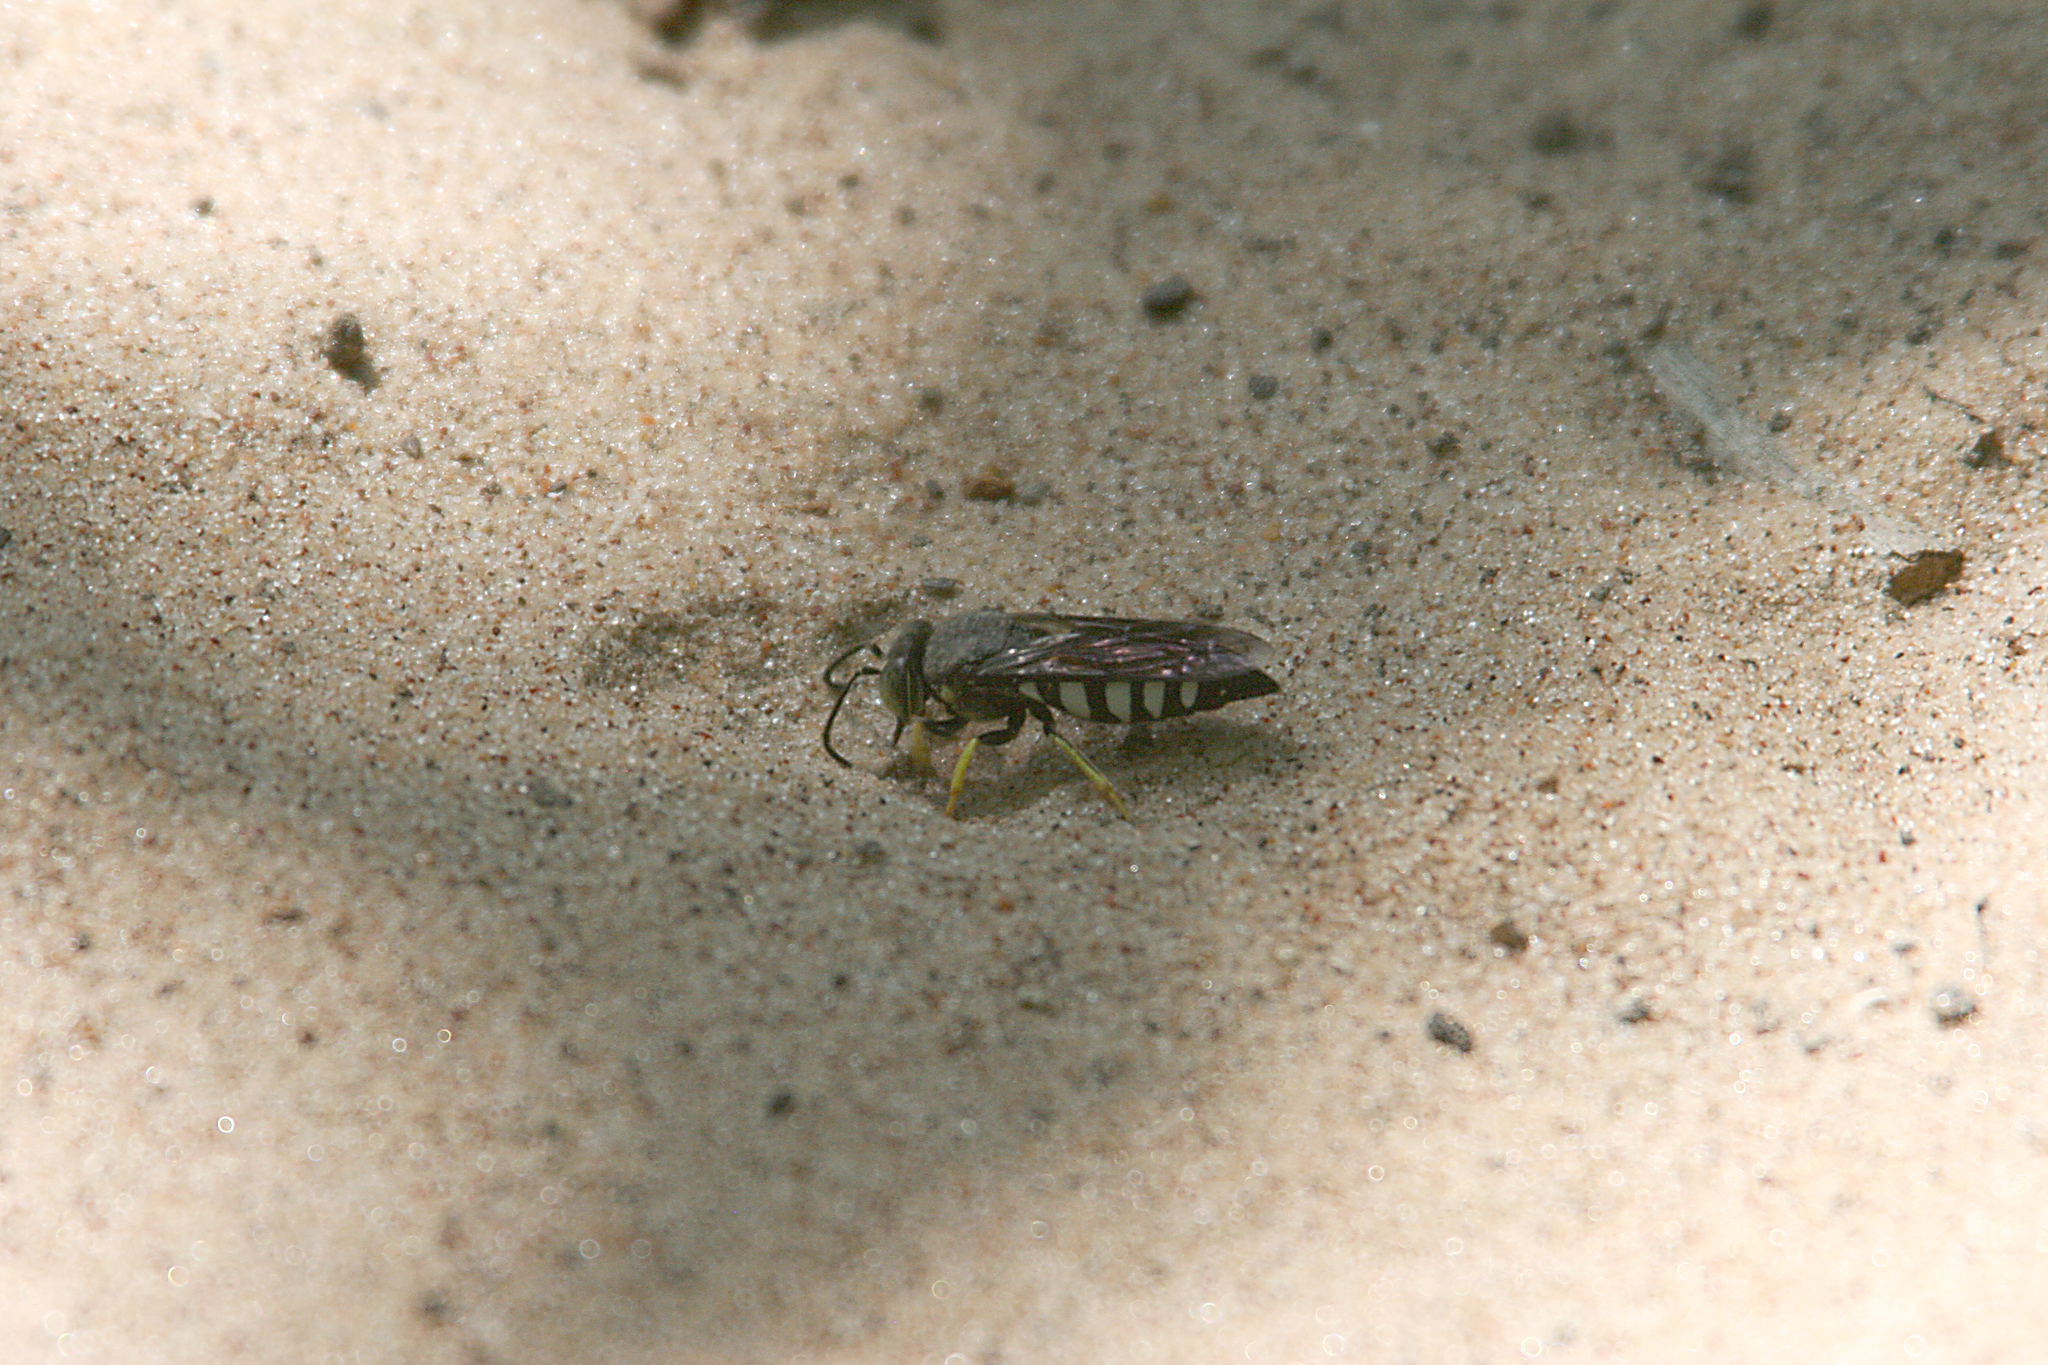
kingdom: Animalia
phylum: Arthropoda
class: Insecta
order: Hymenoptera
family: Crabronidae
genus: Bicyrtes
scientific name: Bicyrtes quadrifasciatus
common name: Four-banded stink bug hunter wasp
